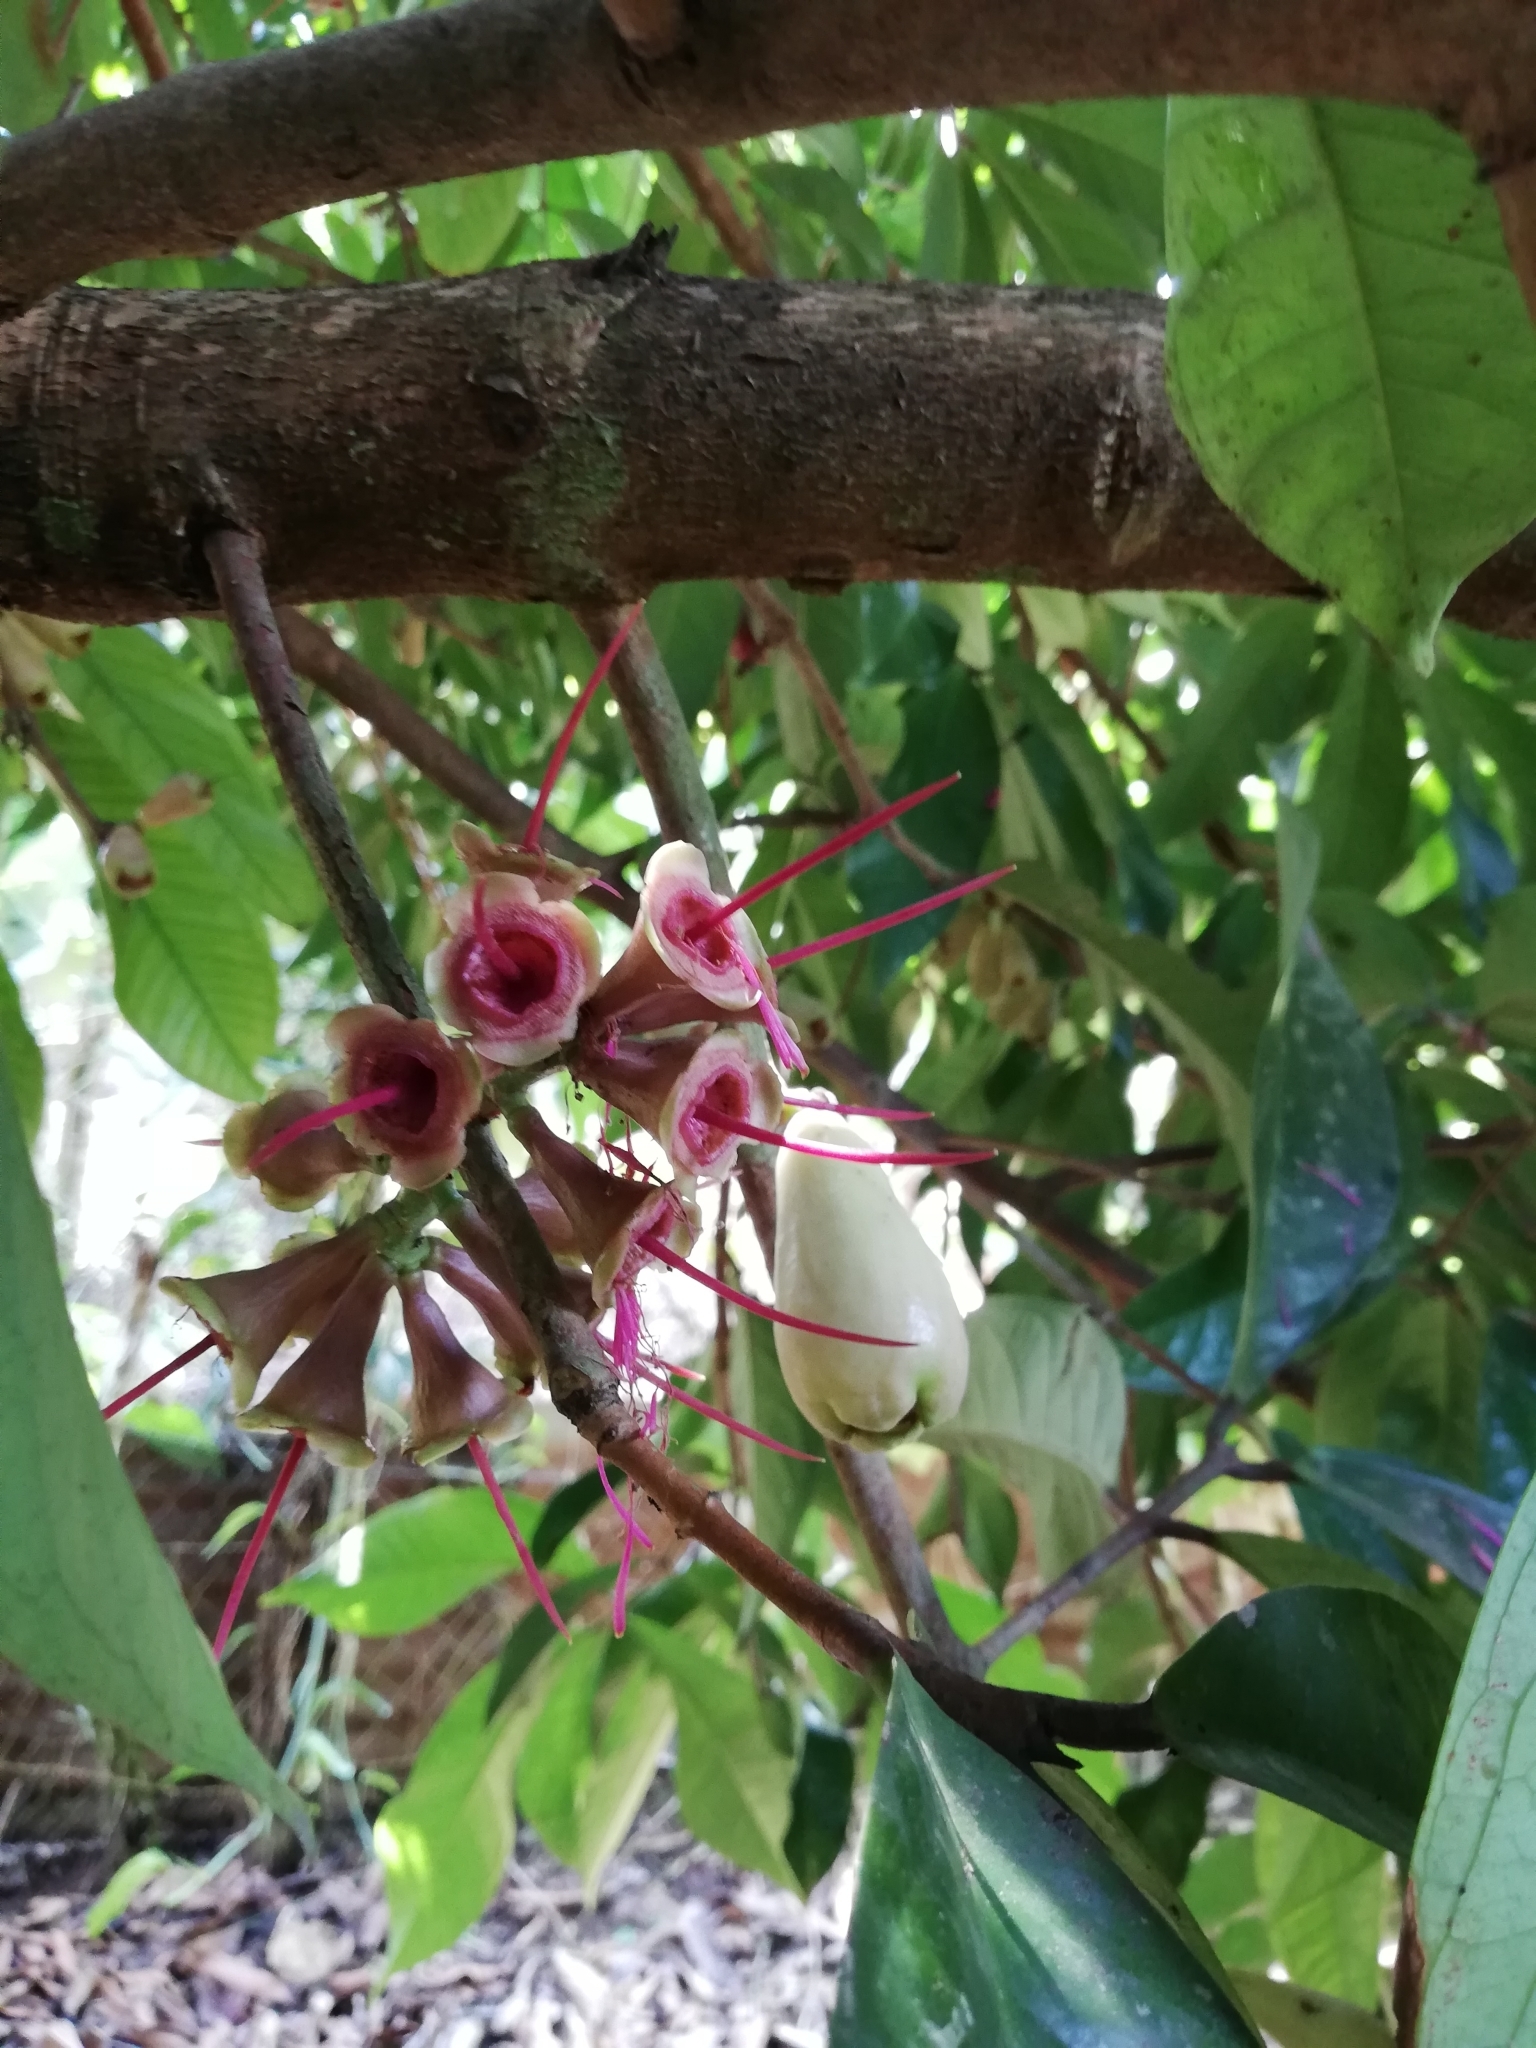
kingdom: Plantae
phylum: Tracheophyta
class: Magnoliopsida
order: Myrtales
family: Myrtaceae
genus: Syzygium
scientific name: Syzygium malaccense
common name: Malaysian apple
